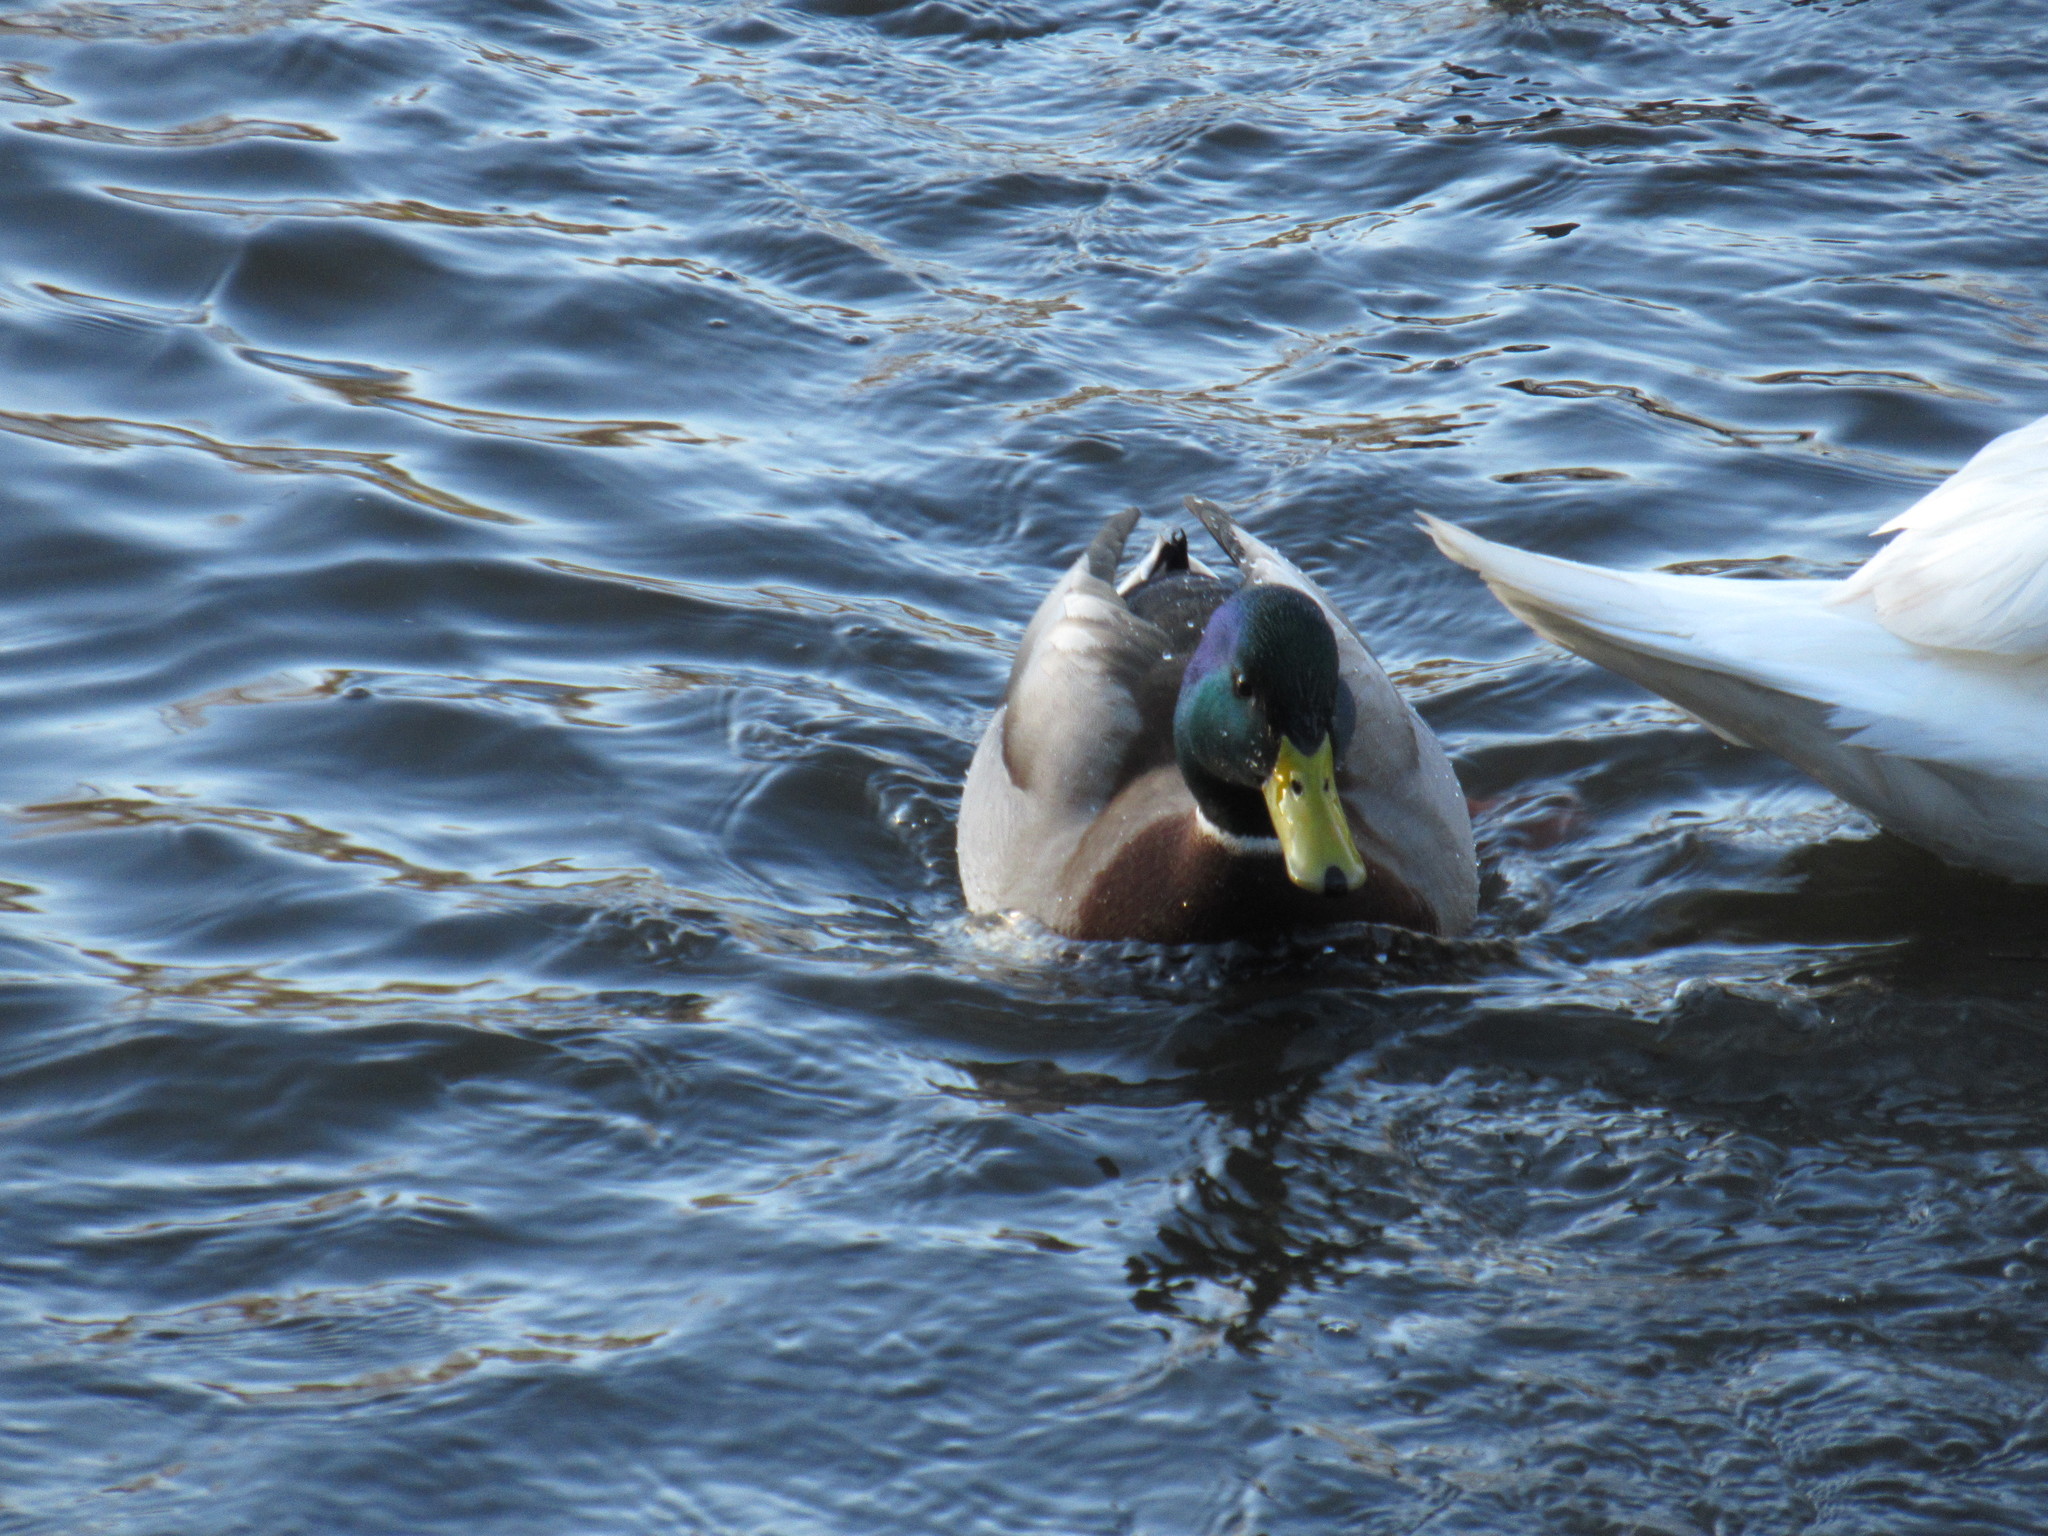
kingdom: Animalia
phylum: Chordata
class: Aves
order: Anseriformes
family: Anatidae
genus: Anas
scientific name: Anas platyrhynchos
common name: Mallard
